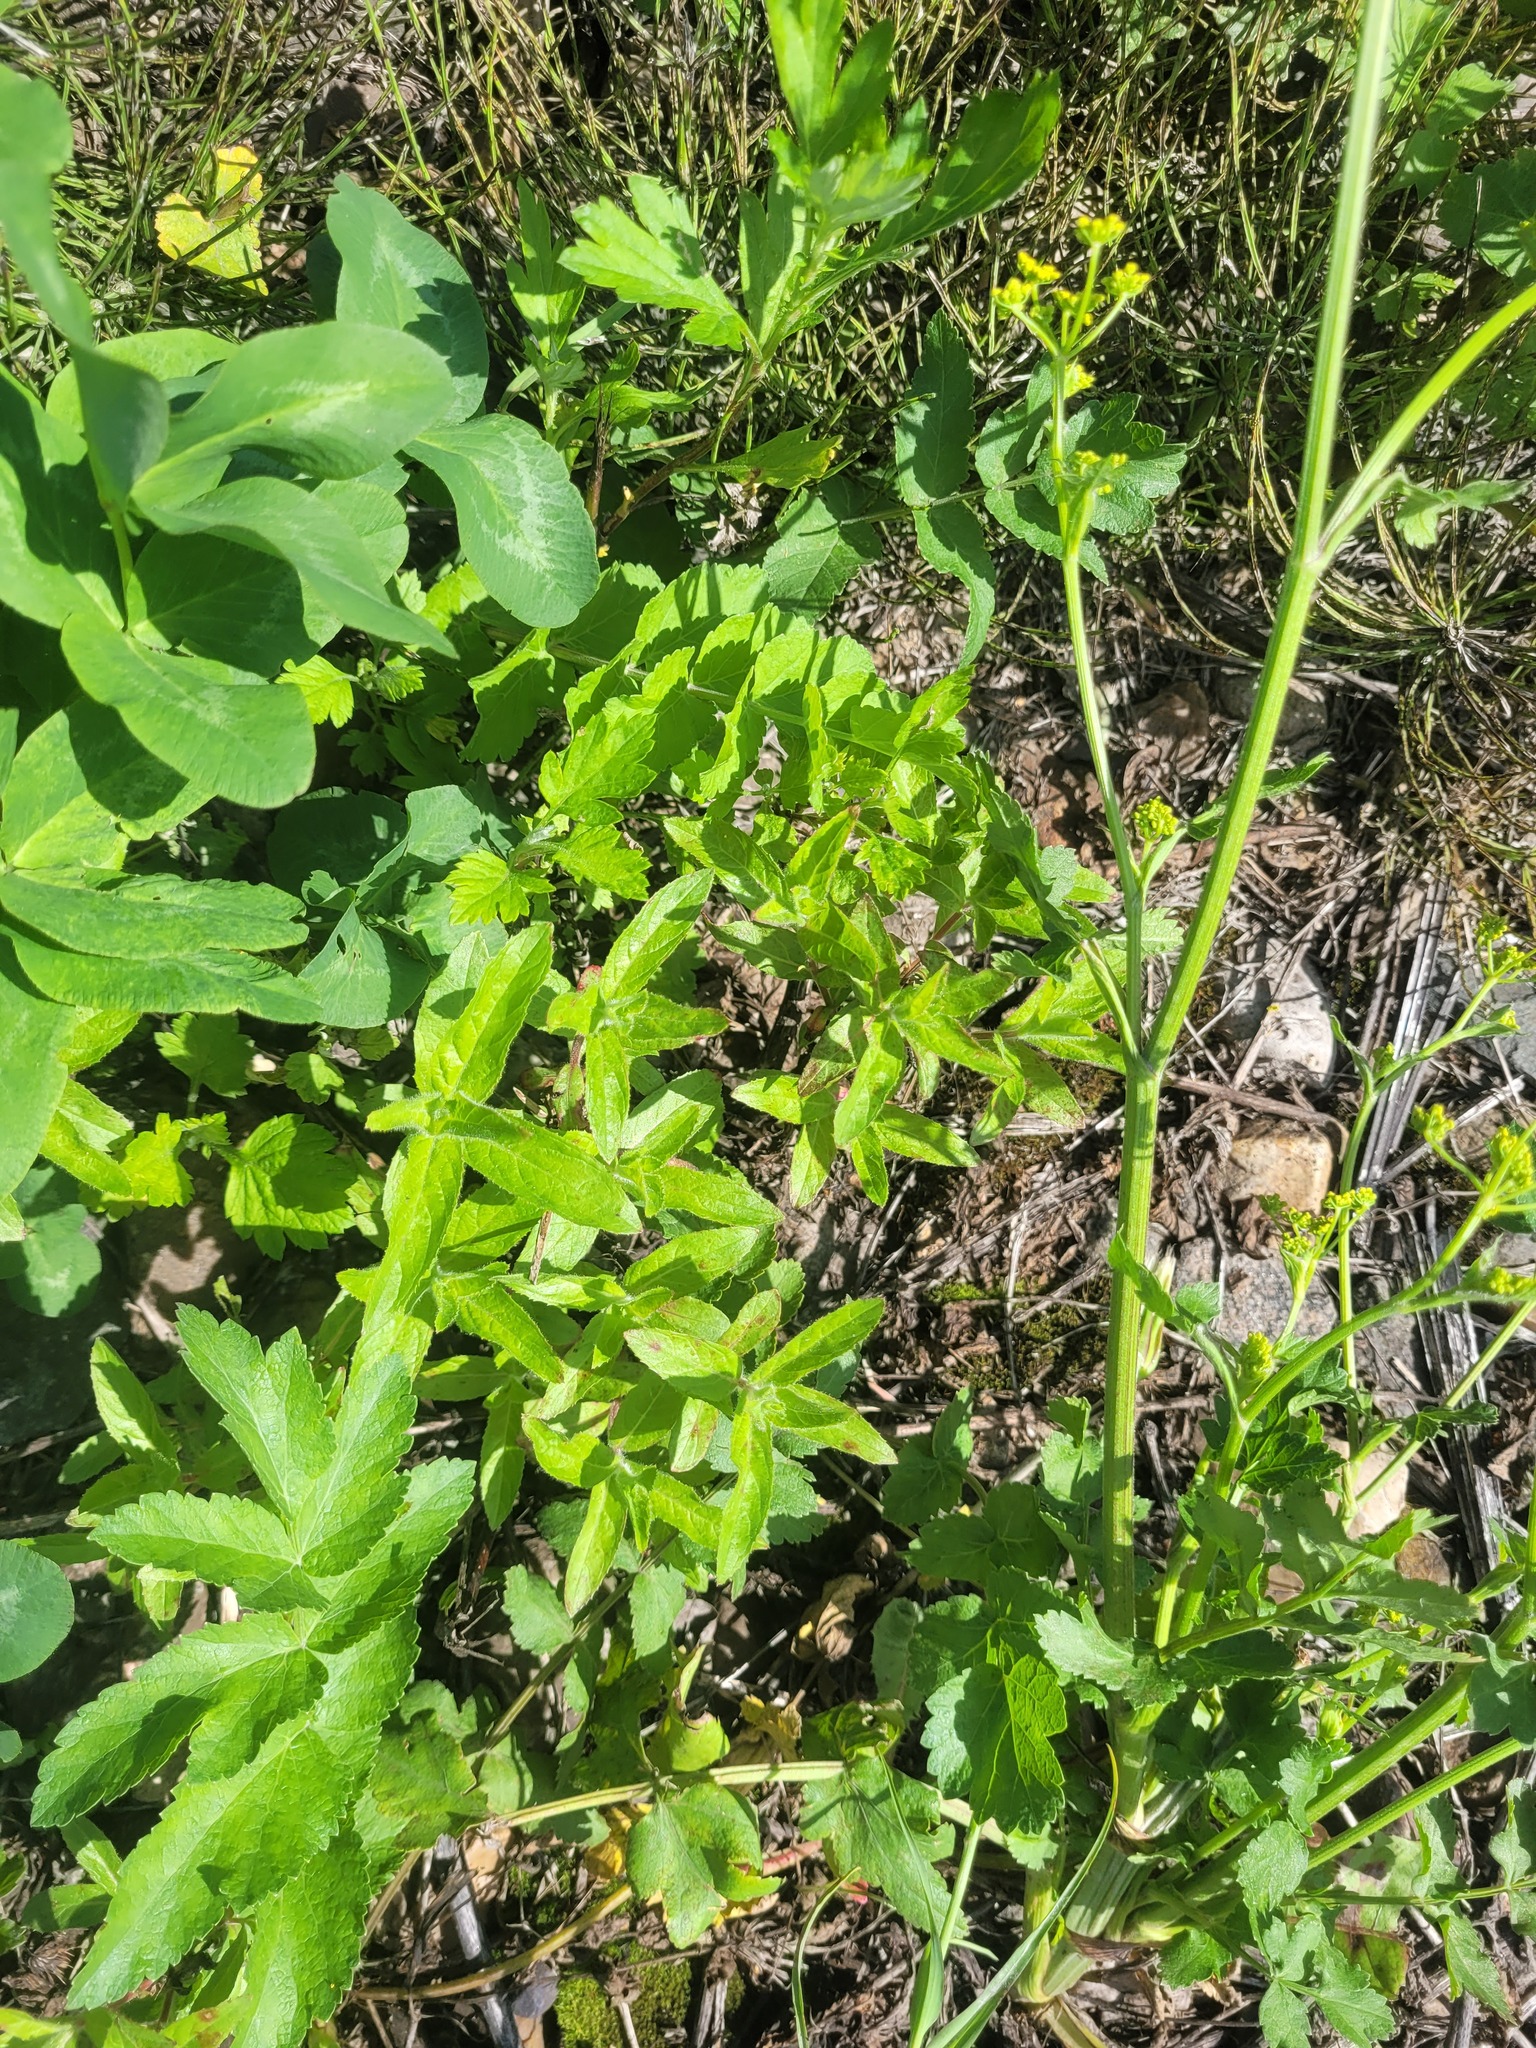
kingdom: Plantae
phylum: Tracheophyta
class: Magnoliopsida
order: Myrtales
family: Onagraceae
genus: Epilobium
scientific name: Epilobium hirsutum
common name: Great willowherb
